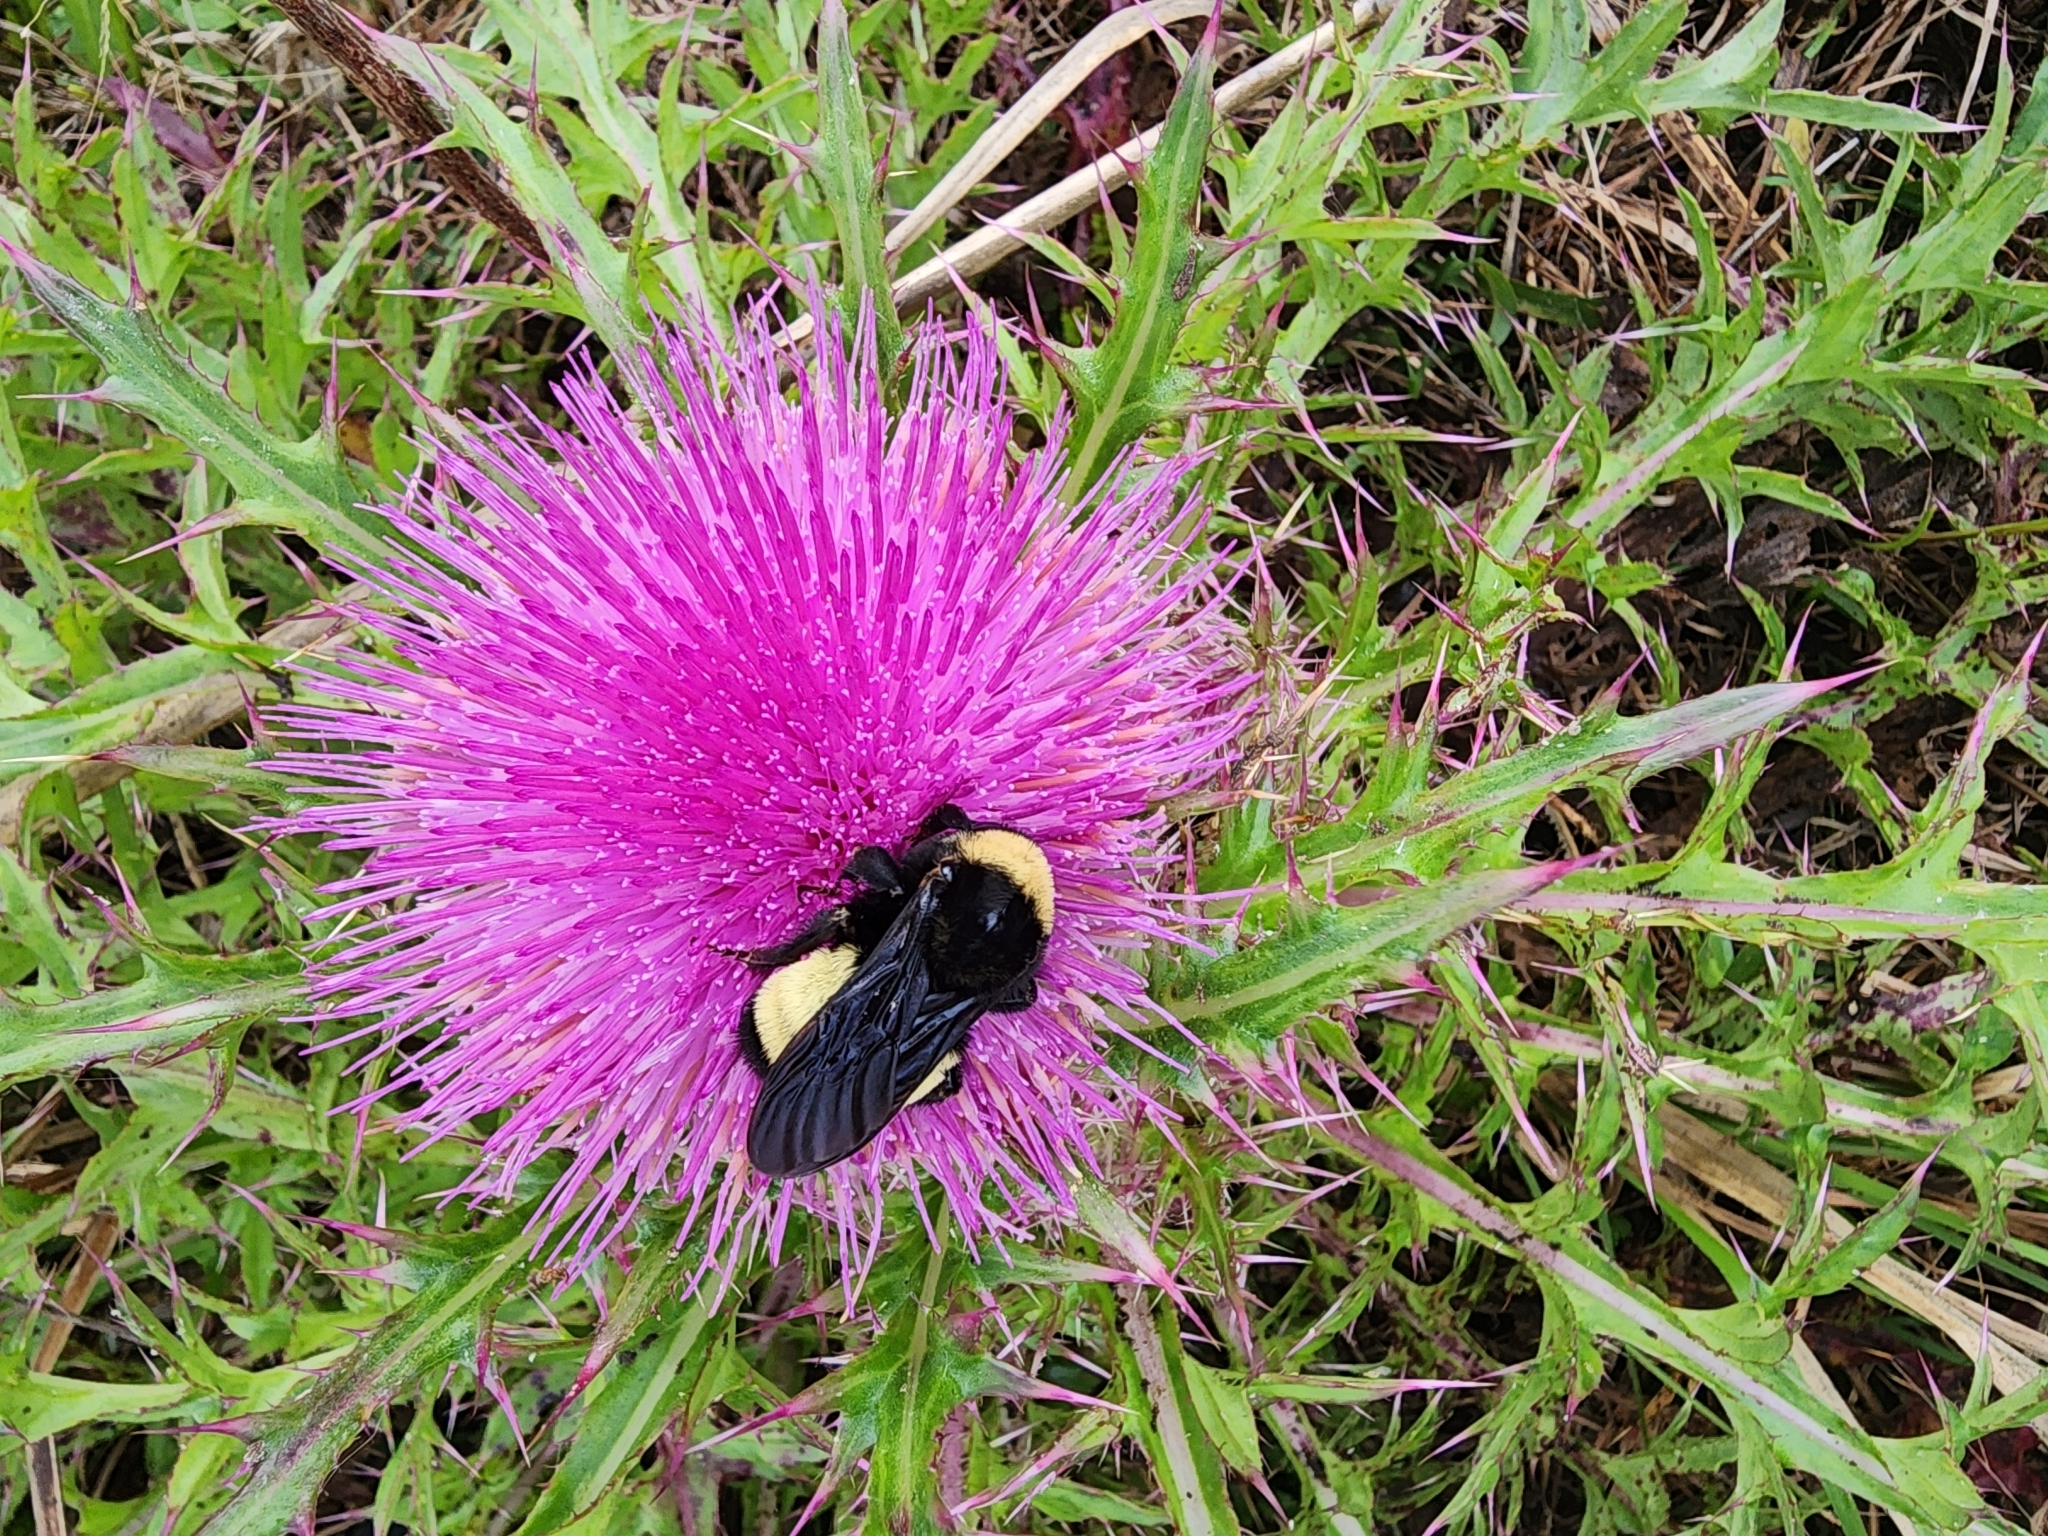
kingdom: Animalia
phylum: Arthropoda
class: Insecta
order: Hymenoptera
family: Apidae
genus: Bombus
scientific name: Bombus pensylvanicus
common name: Bumble bee
